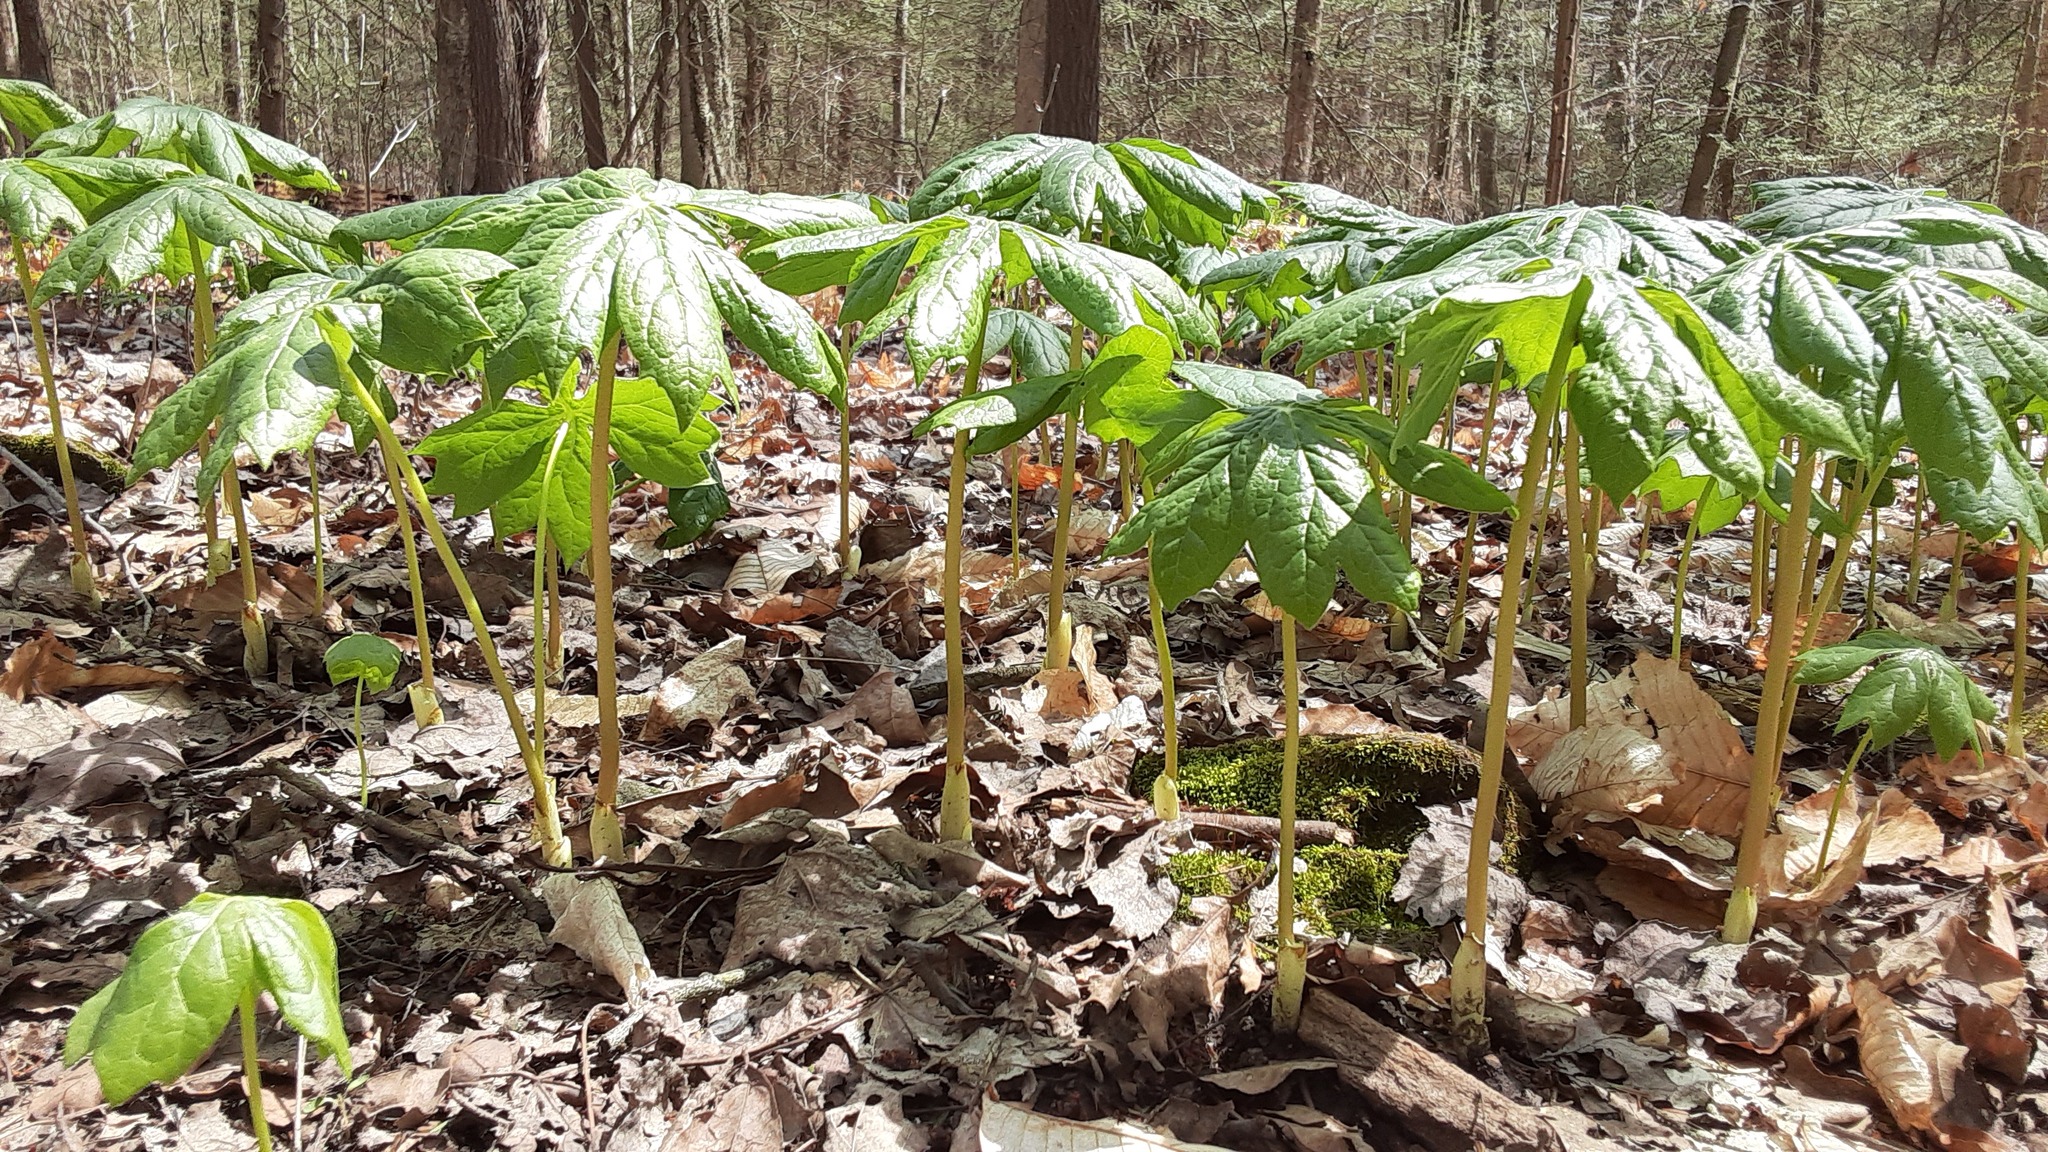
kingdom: Plantae
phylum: Tracheophyta
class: Magnoliopsida
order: Ranunculales
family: Berberidaceae
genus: Podophyllum
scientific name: Podophyllum peltatum
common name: Wild mandrake
